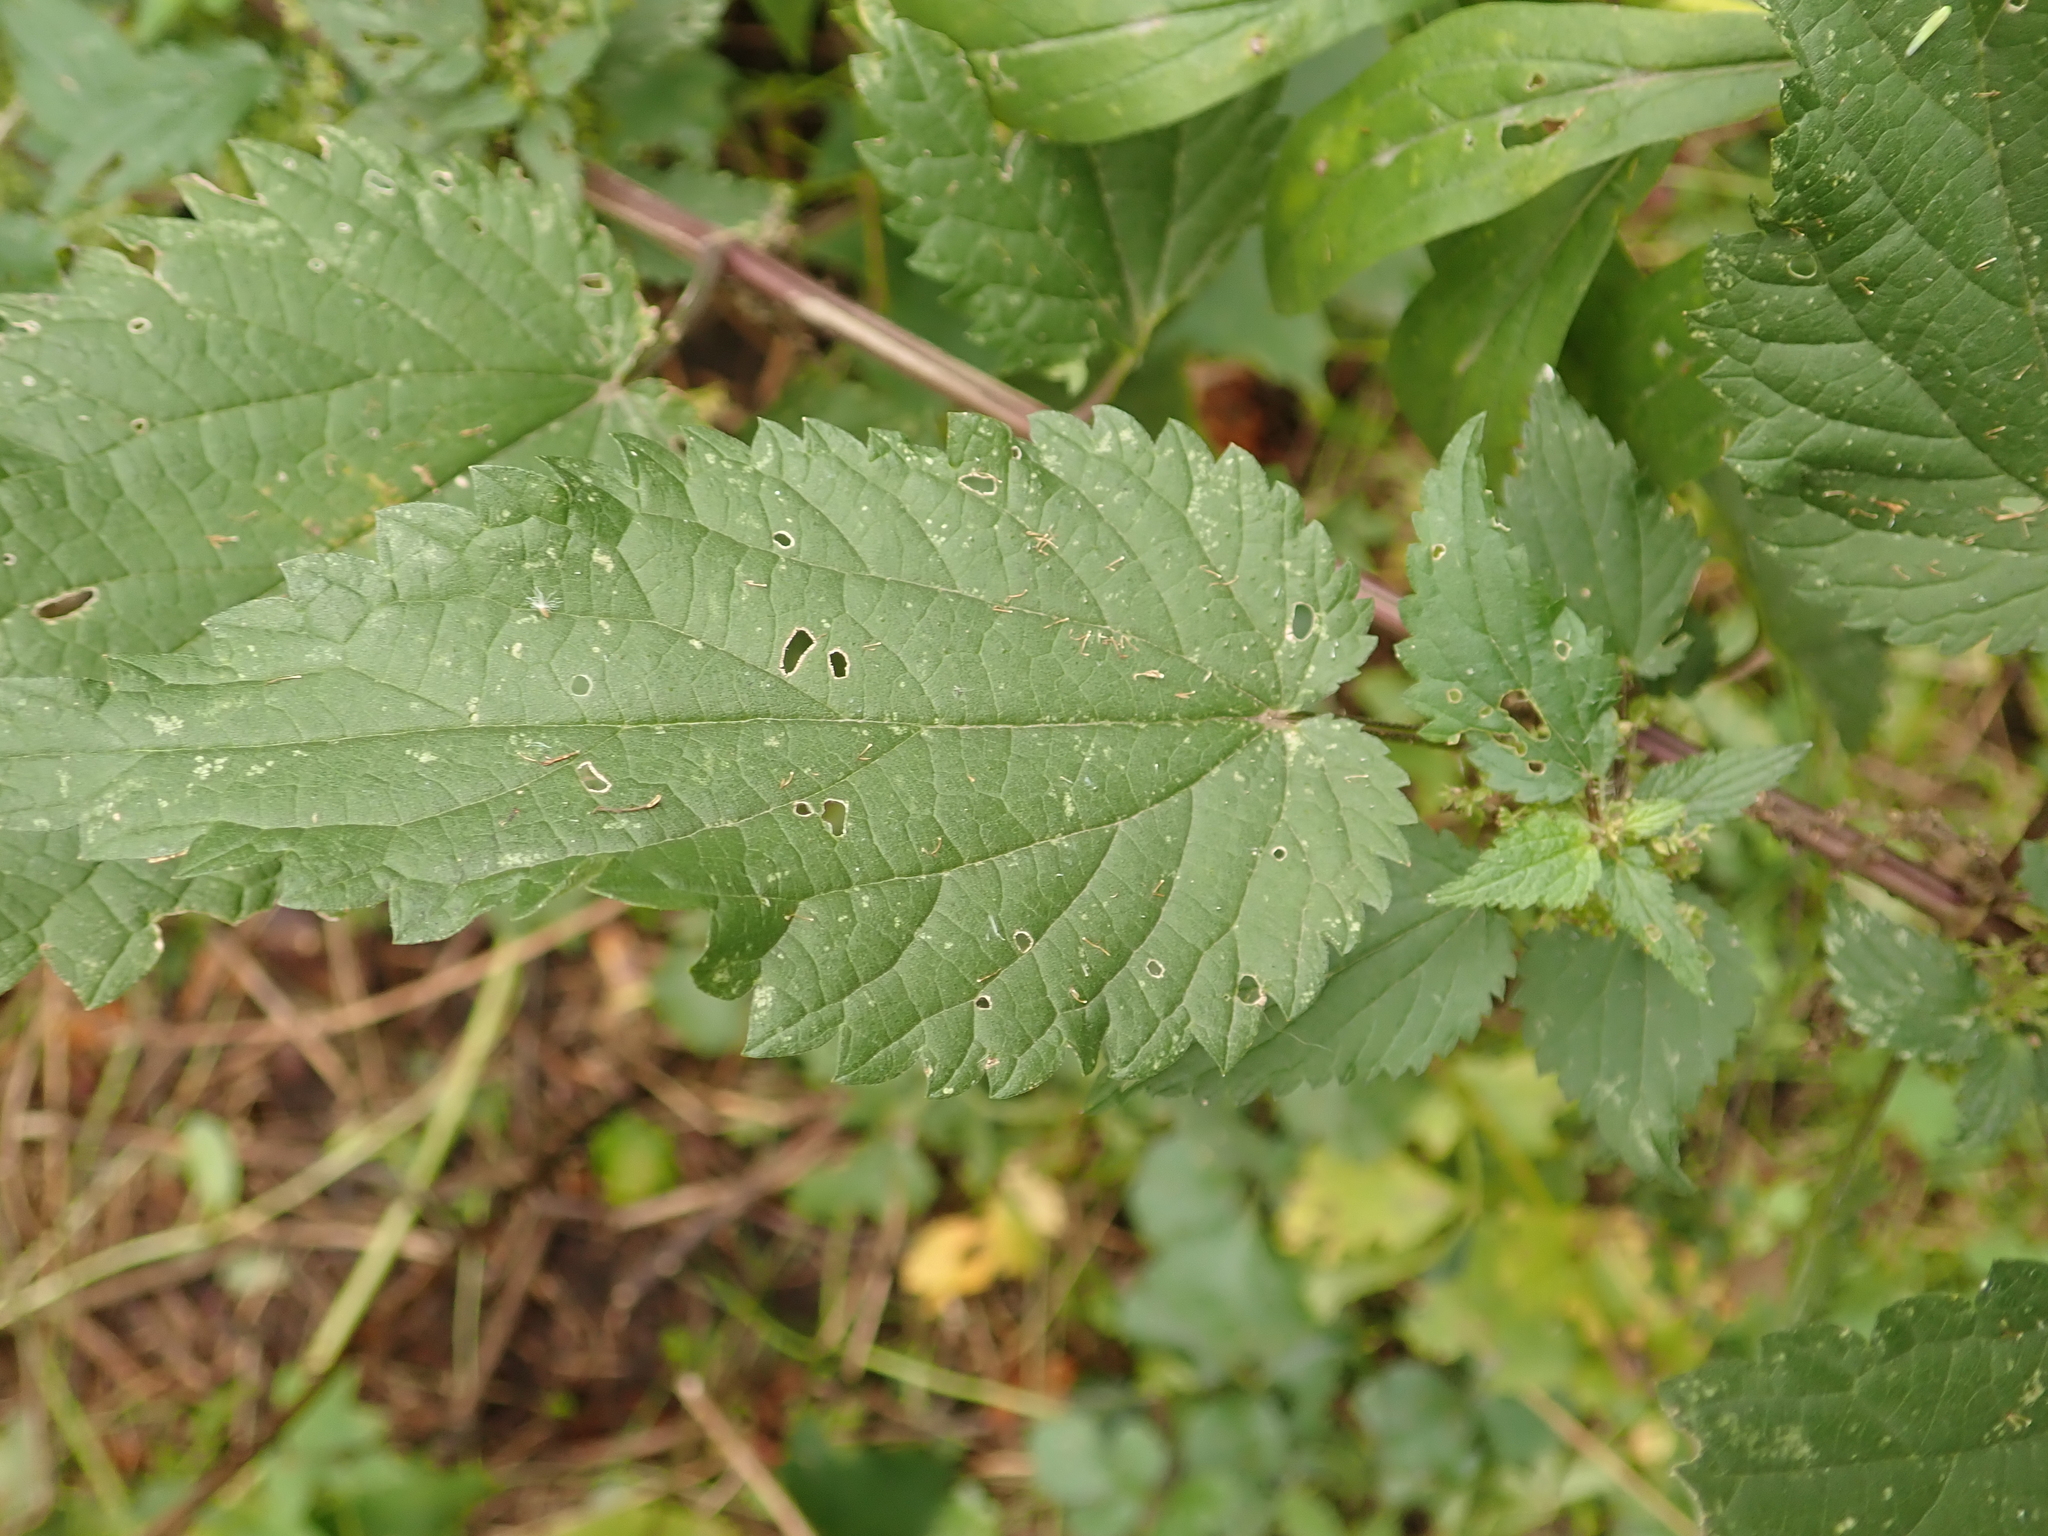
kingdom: Plantae
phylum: Tracheophyta
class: Magnoliopsida
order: Rosales
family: Urticaceae
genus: Urtica
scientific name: Urtica dioica
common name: Common nettle
